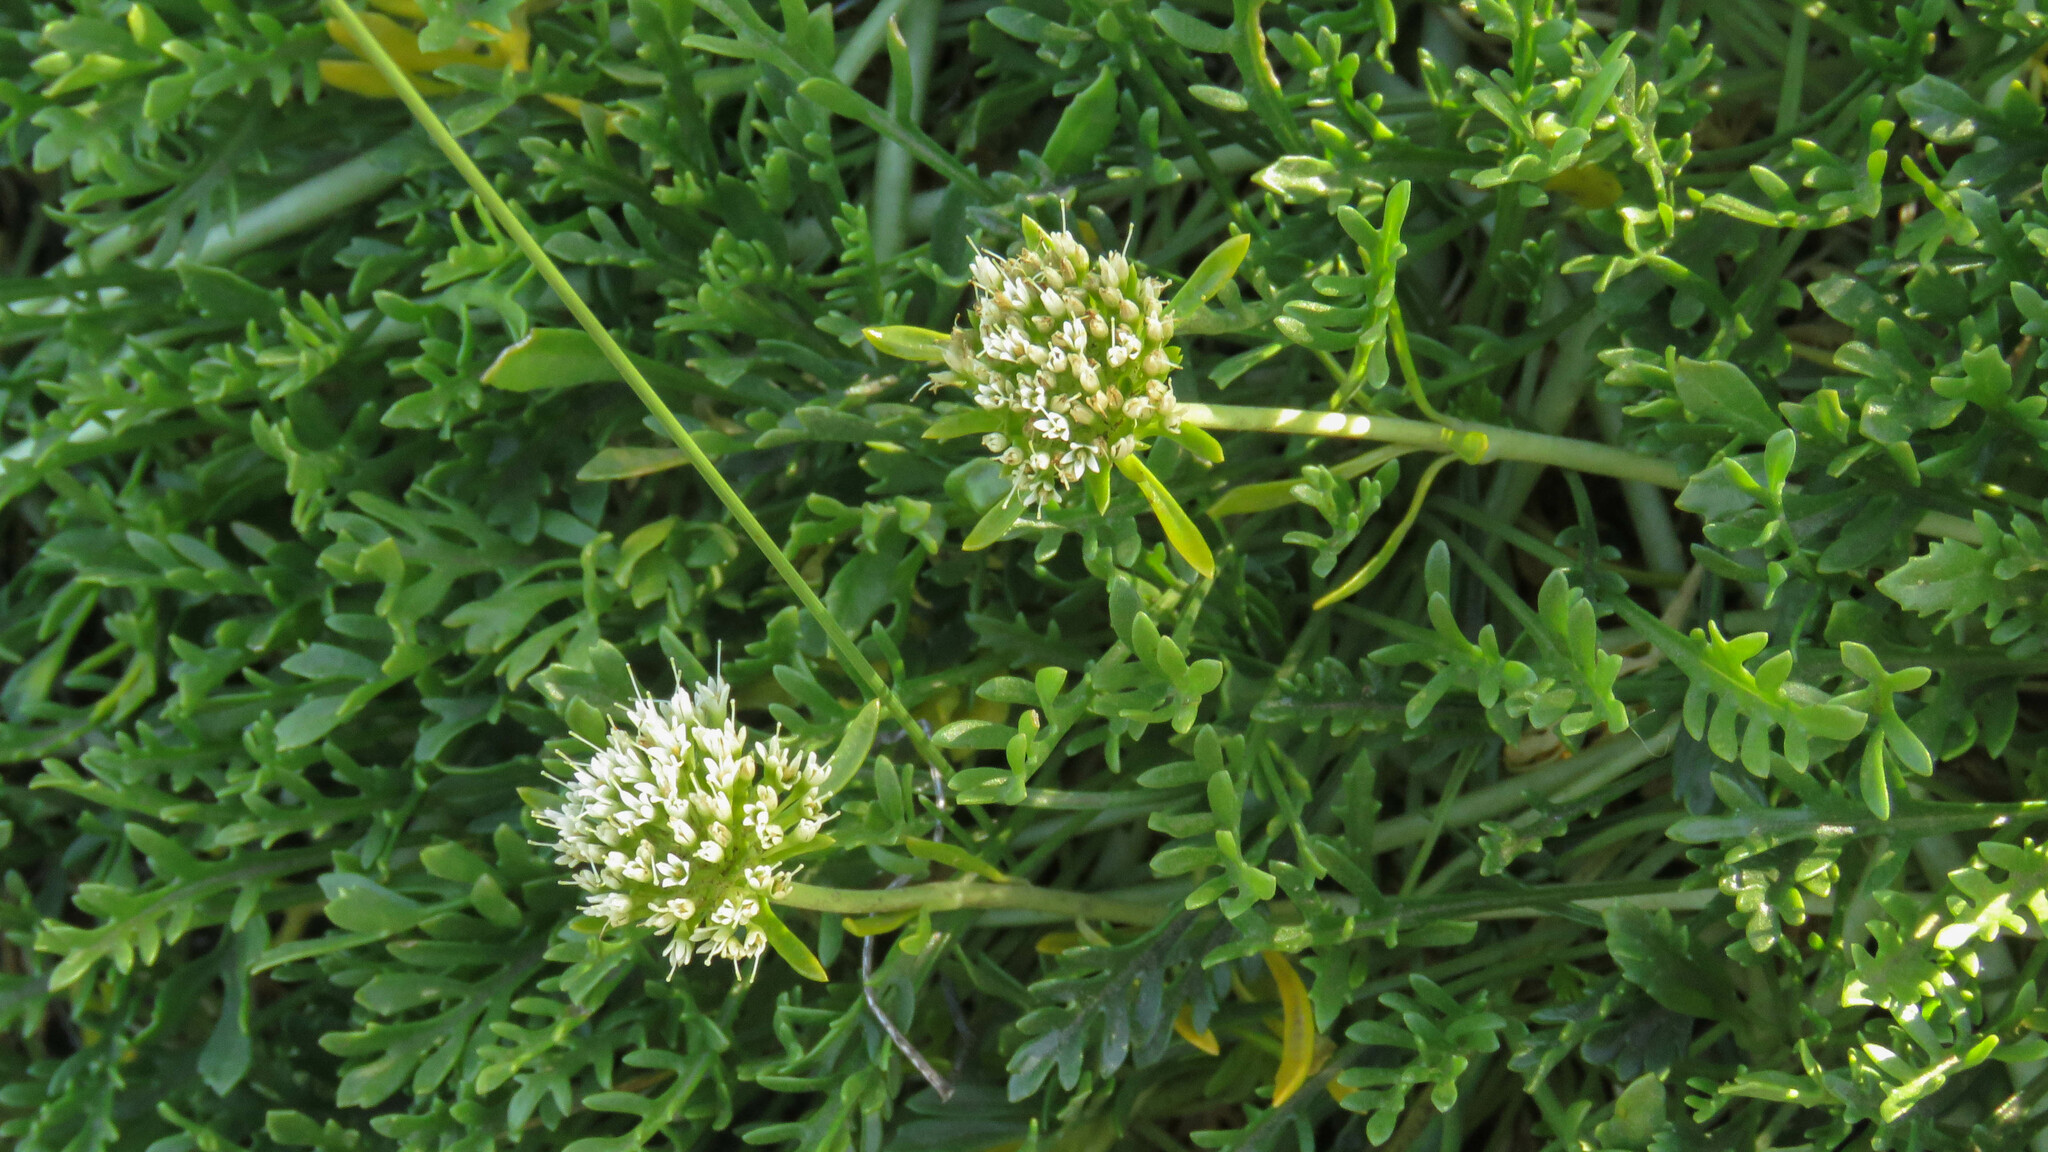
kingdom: Plantae
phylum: Tracheophyta
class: Magnoliopsida
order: Asterales
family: Calyceraceae
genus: Asynthema
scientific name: Asynthema gracile
